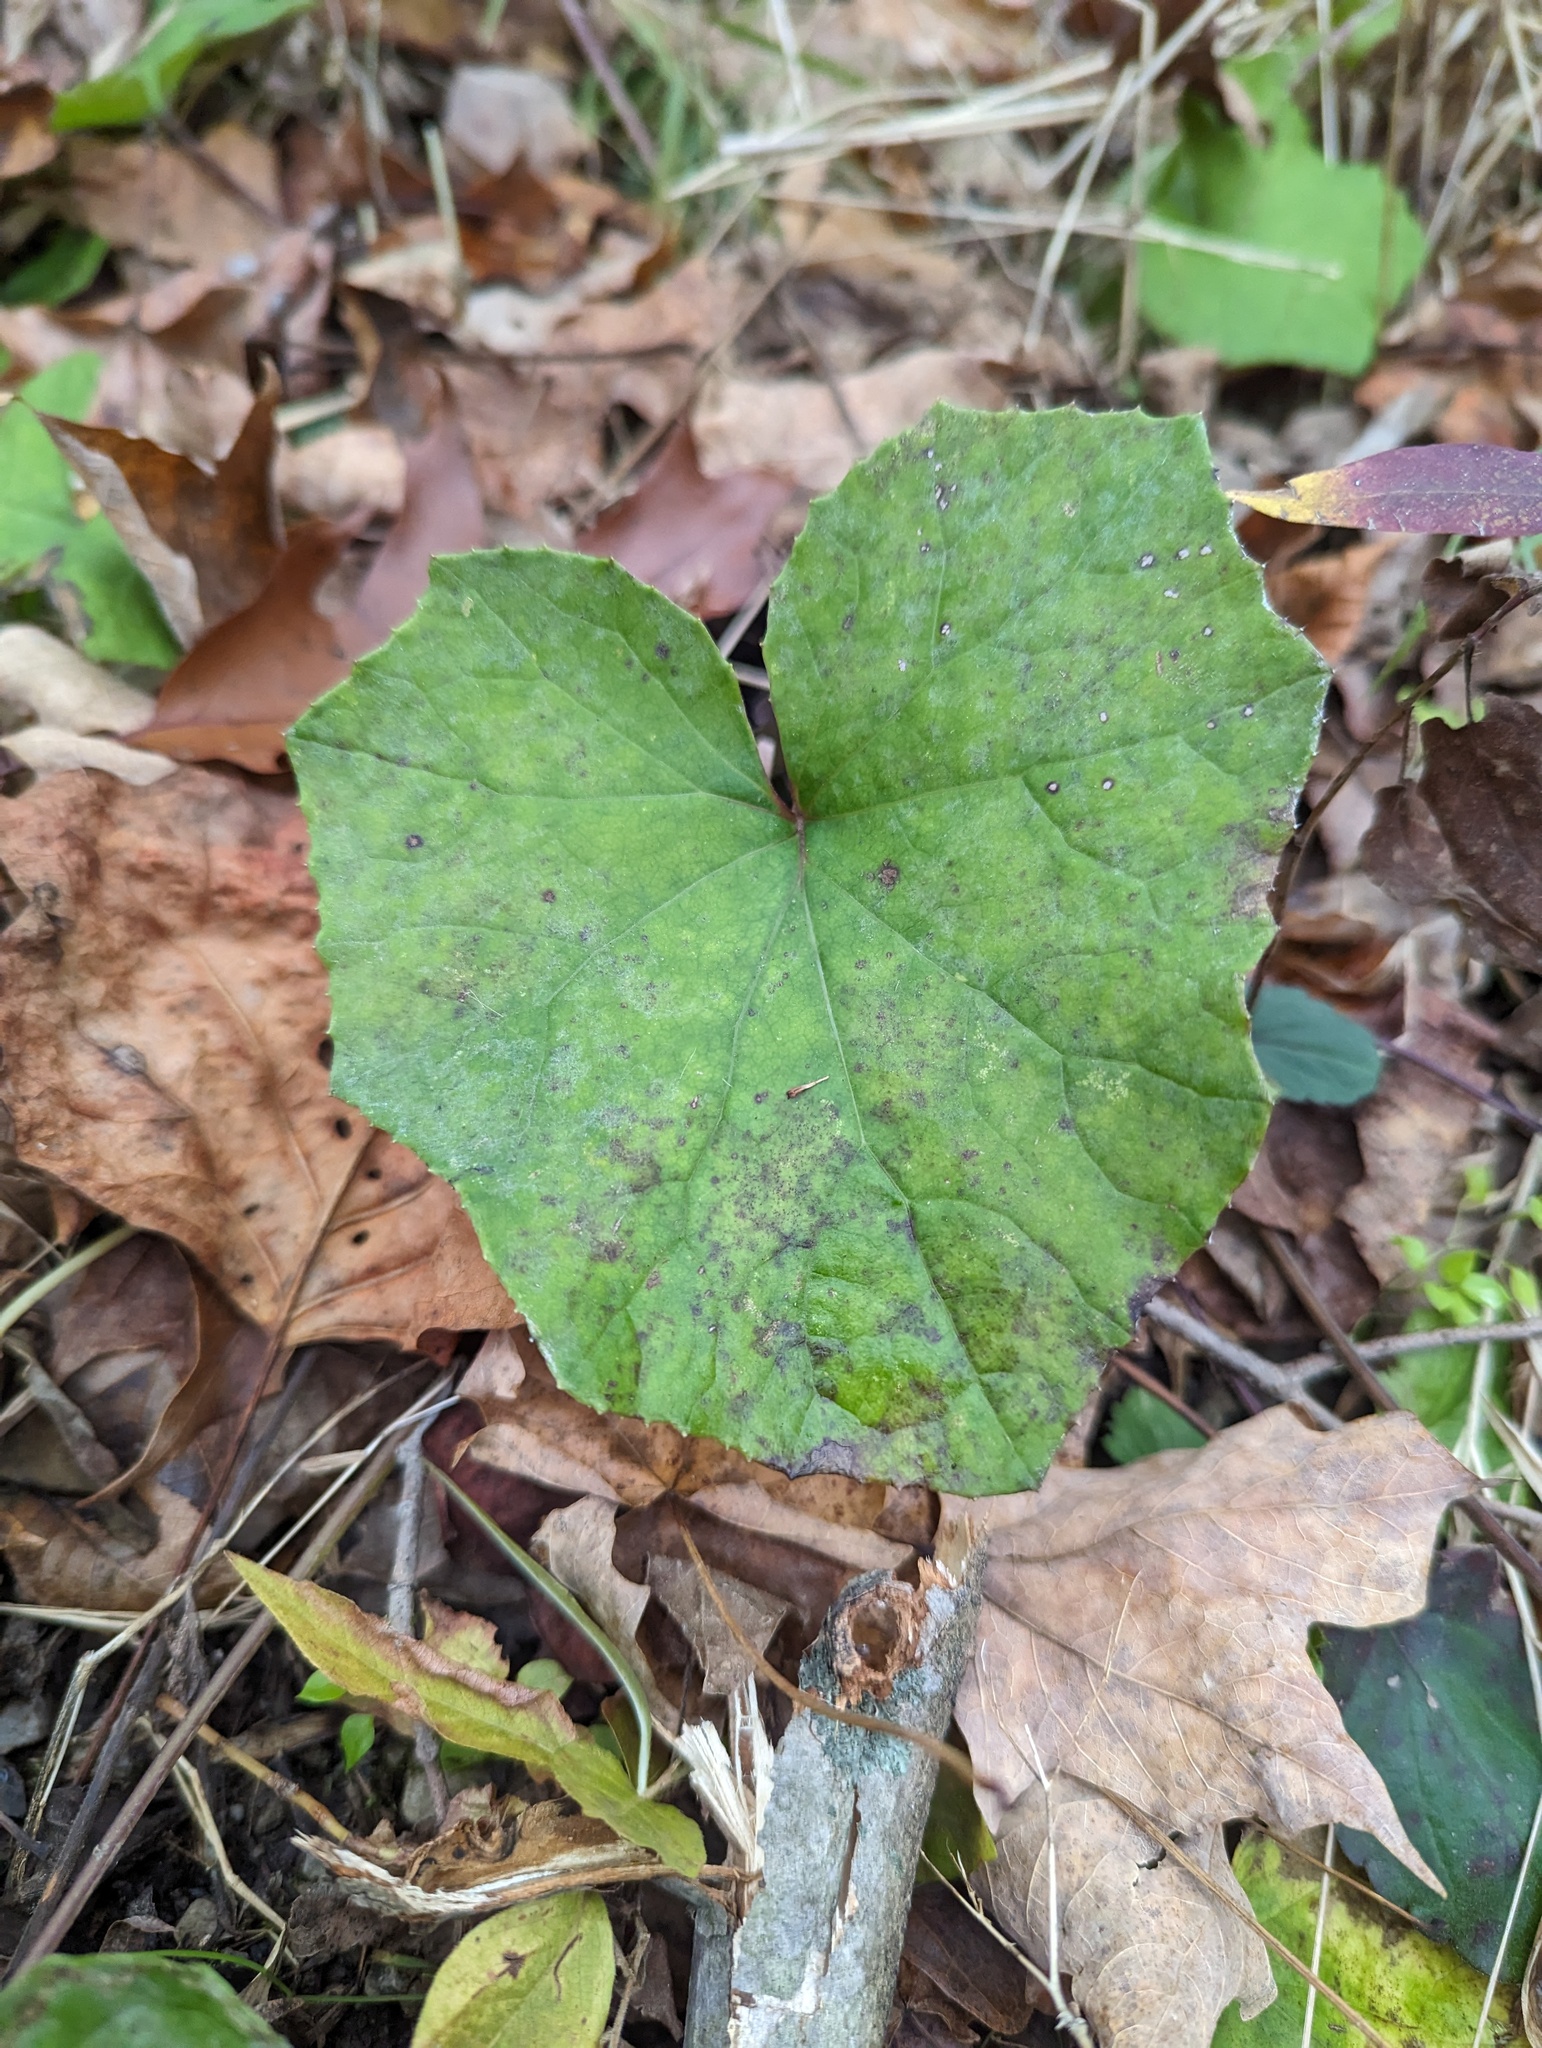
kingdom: Plantae
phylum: Tracheophyta
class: Magnoliopsida
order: Asterales
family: Asteraceae
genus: Tussilago
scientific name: Tussilago farfara
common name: Coltsfoot
